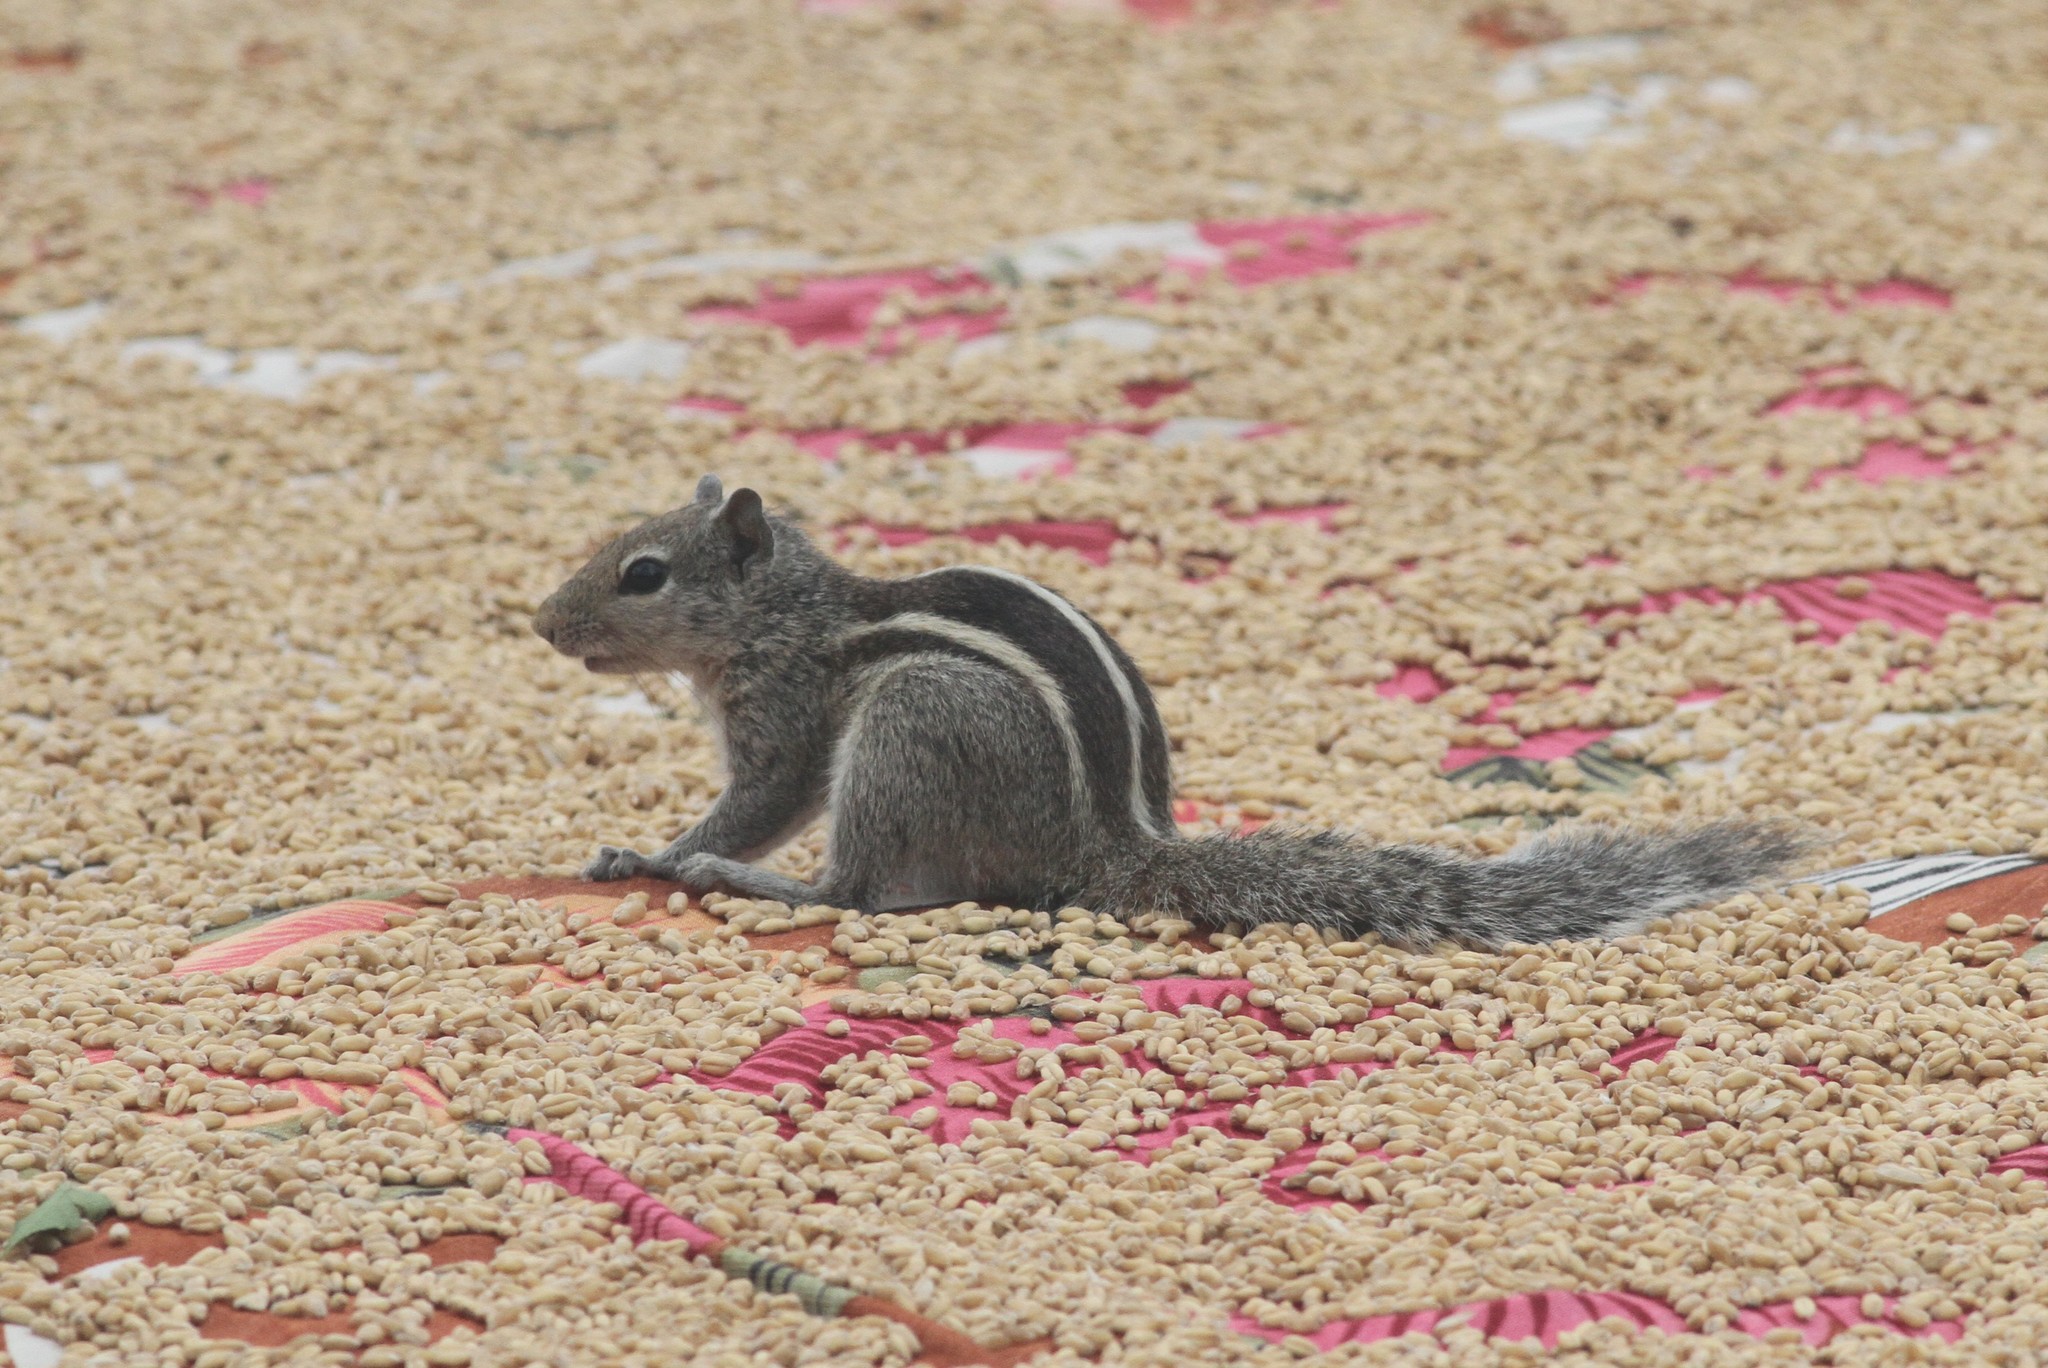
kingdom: Animalia
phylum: Chordata
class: Mammalia
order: Rodentia
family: Sciuridae
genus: Funambulus
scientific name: Funambulus palmarum
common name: Indian palm squirrel
